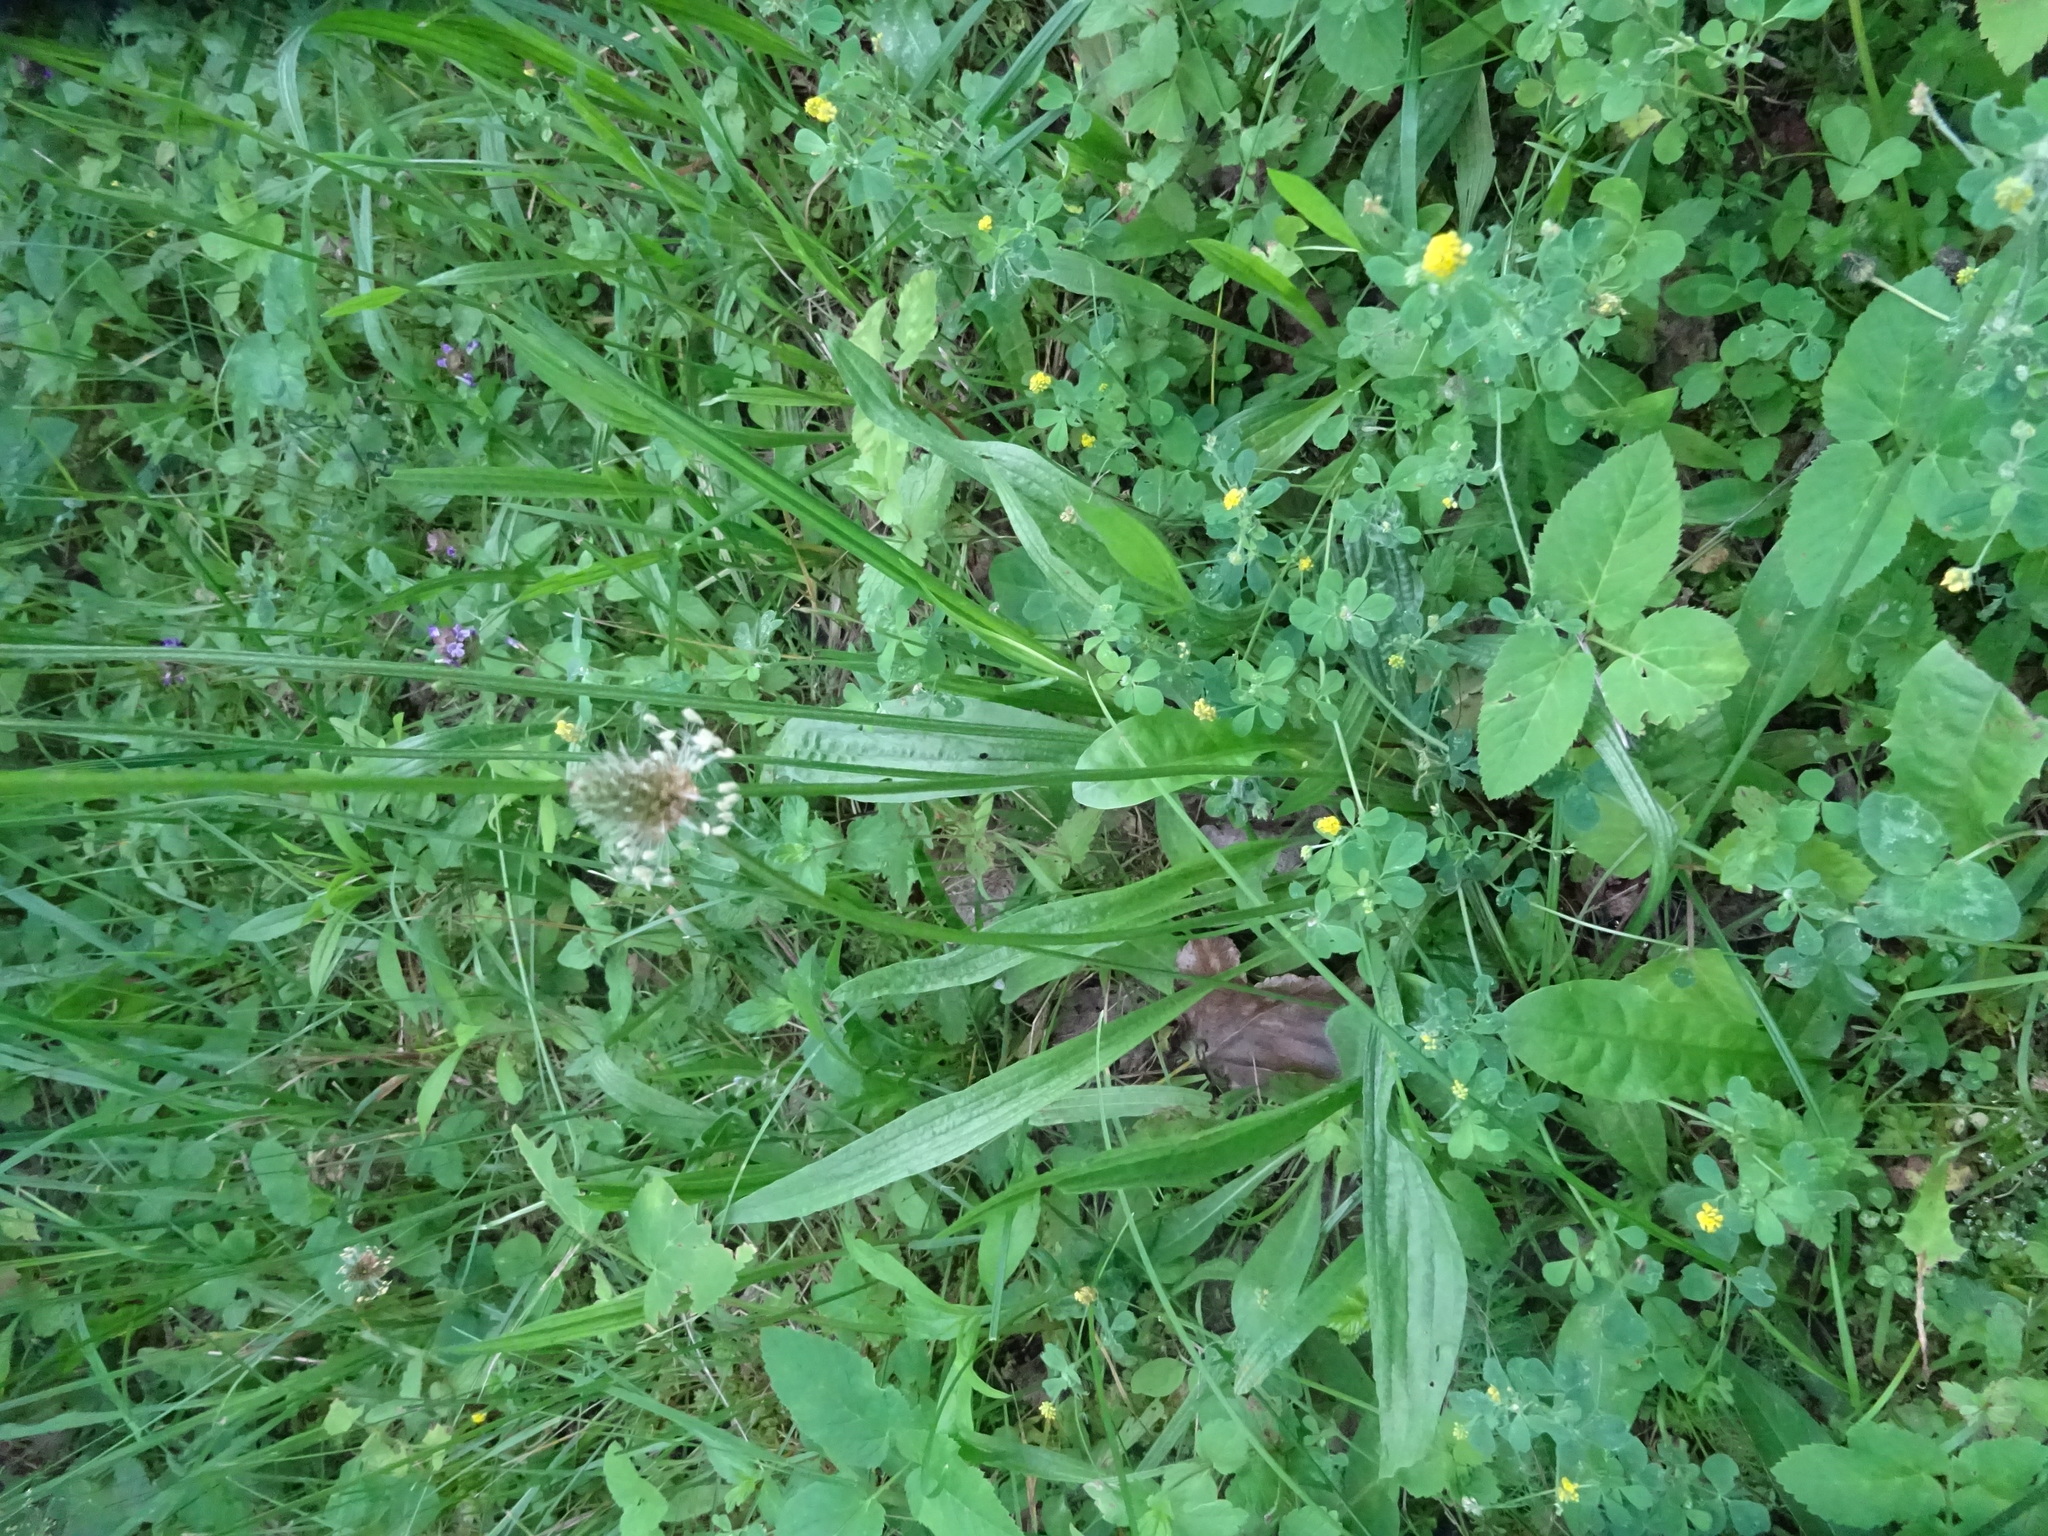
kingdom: Plantae
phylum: Tracheophyta
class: Magnoliopsida
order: Lamiales
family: Plantaginaceae
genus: Plantago
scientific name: Plantago lanceolata
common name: Ribwort plantain
